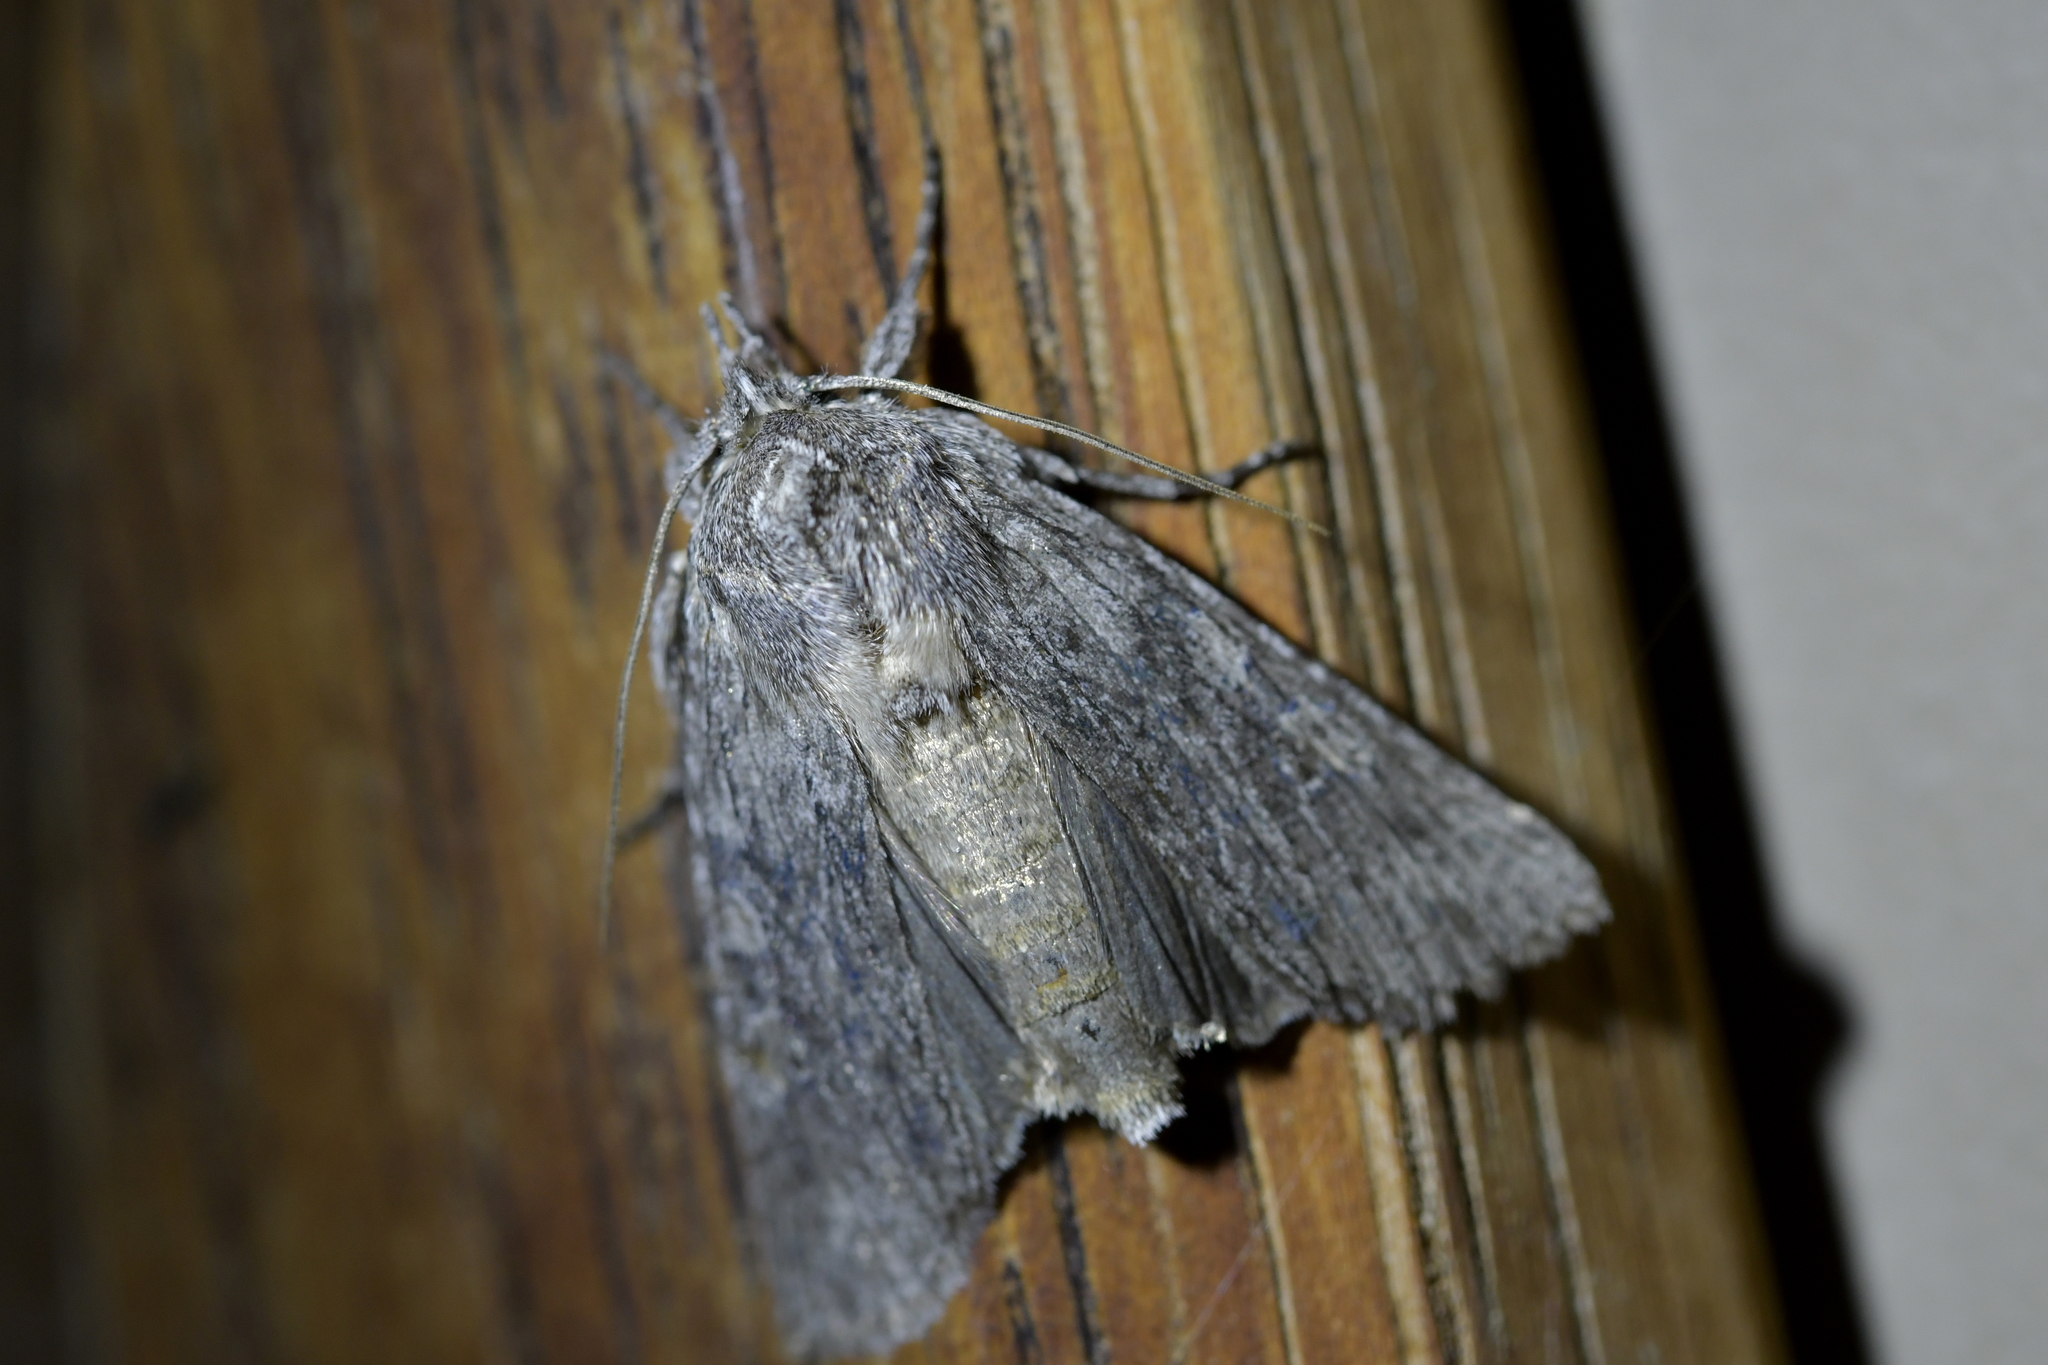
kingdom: Animalia
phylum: Arthropoda
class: Insecta
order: Lepidoptera
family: Noctuidae
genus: Physetica
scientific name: Physetica phricias
